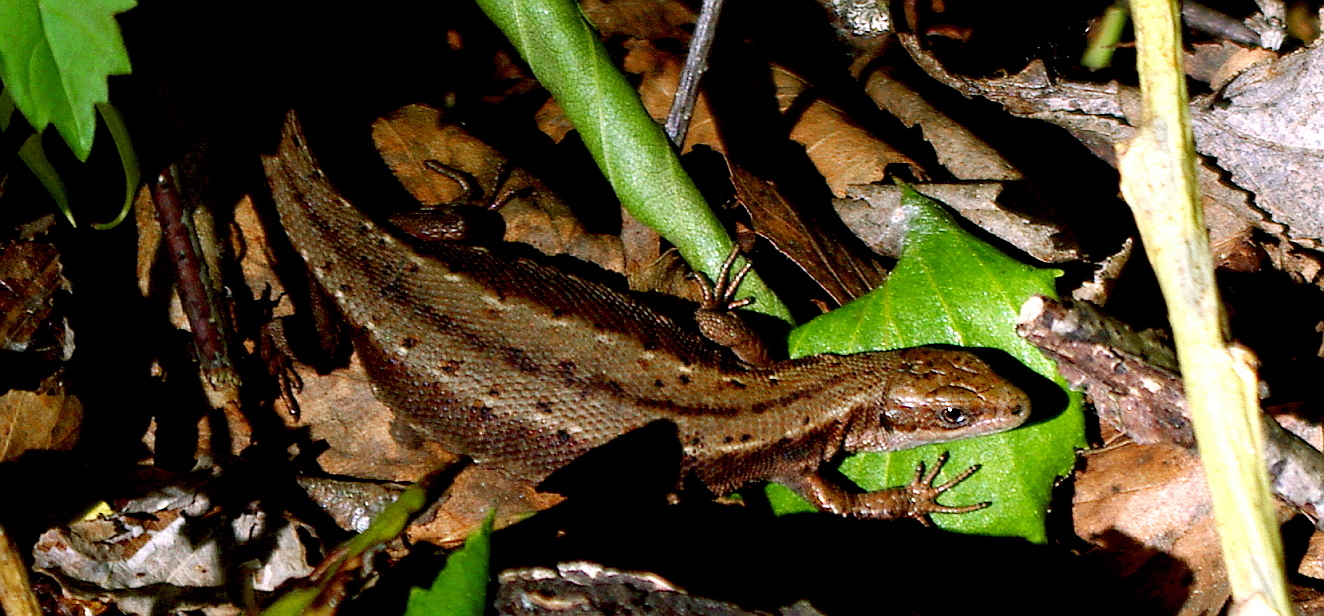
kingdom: Animalia
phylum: Chordata
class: Squamata
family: Lacertidae
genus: Zootoca
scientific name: Zootoca vivipara
